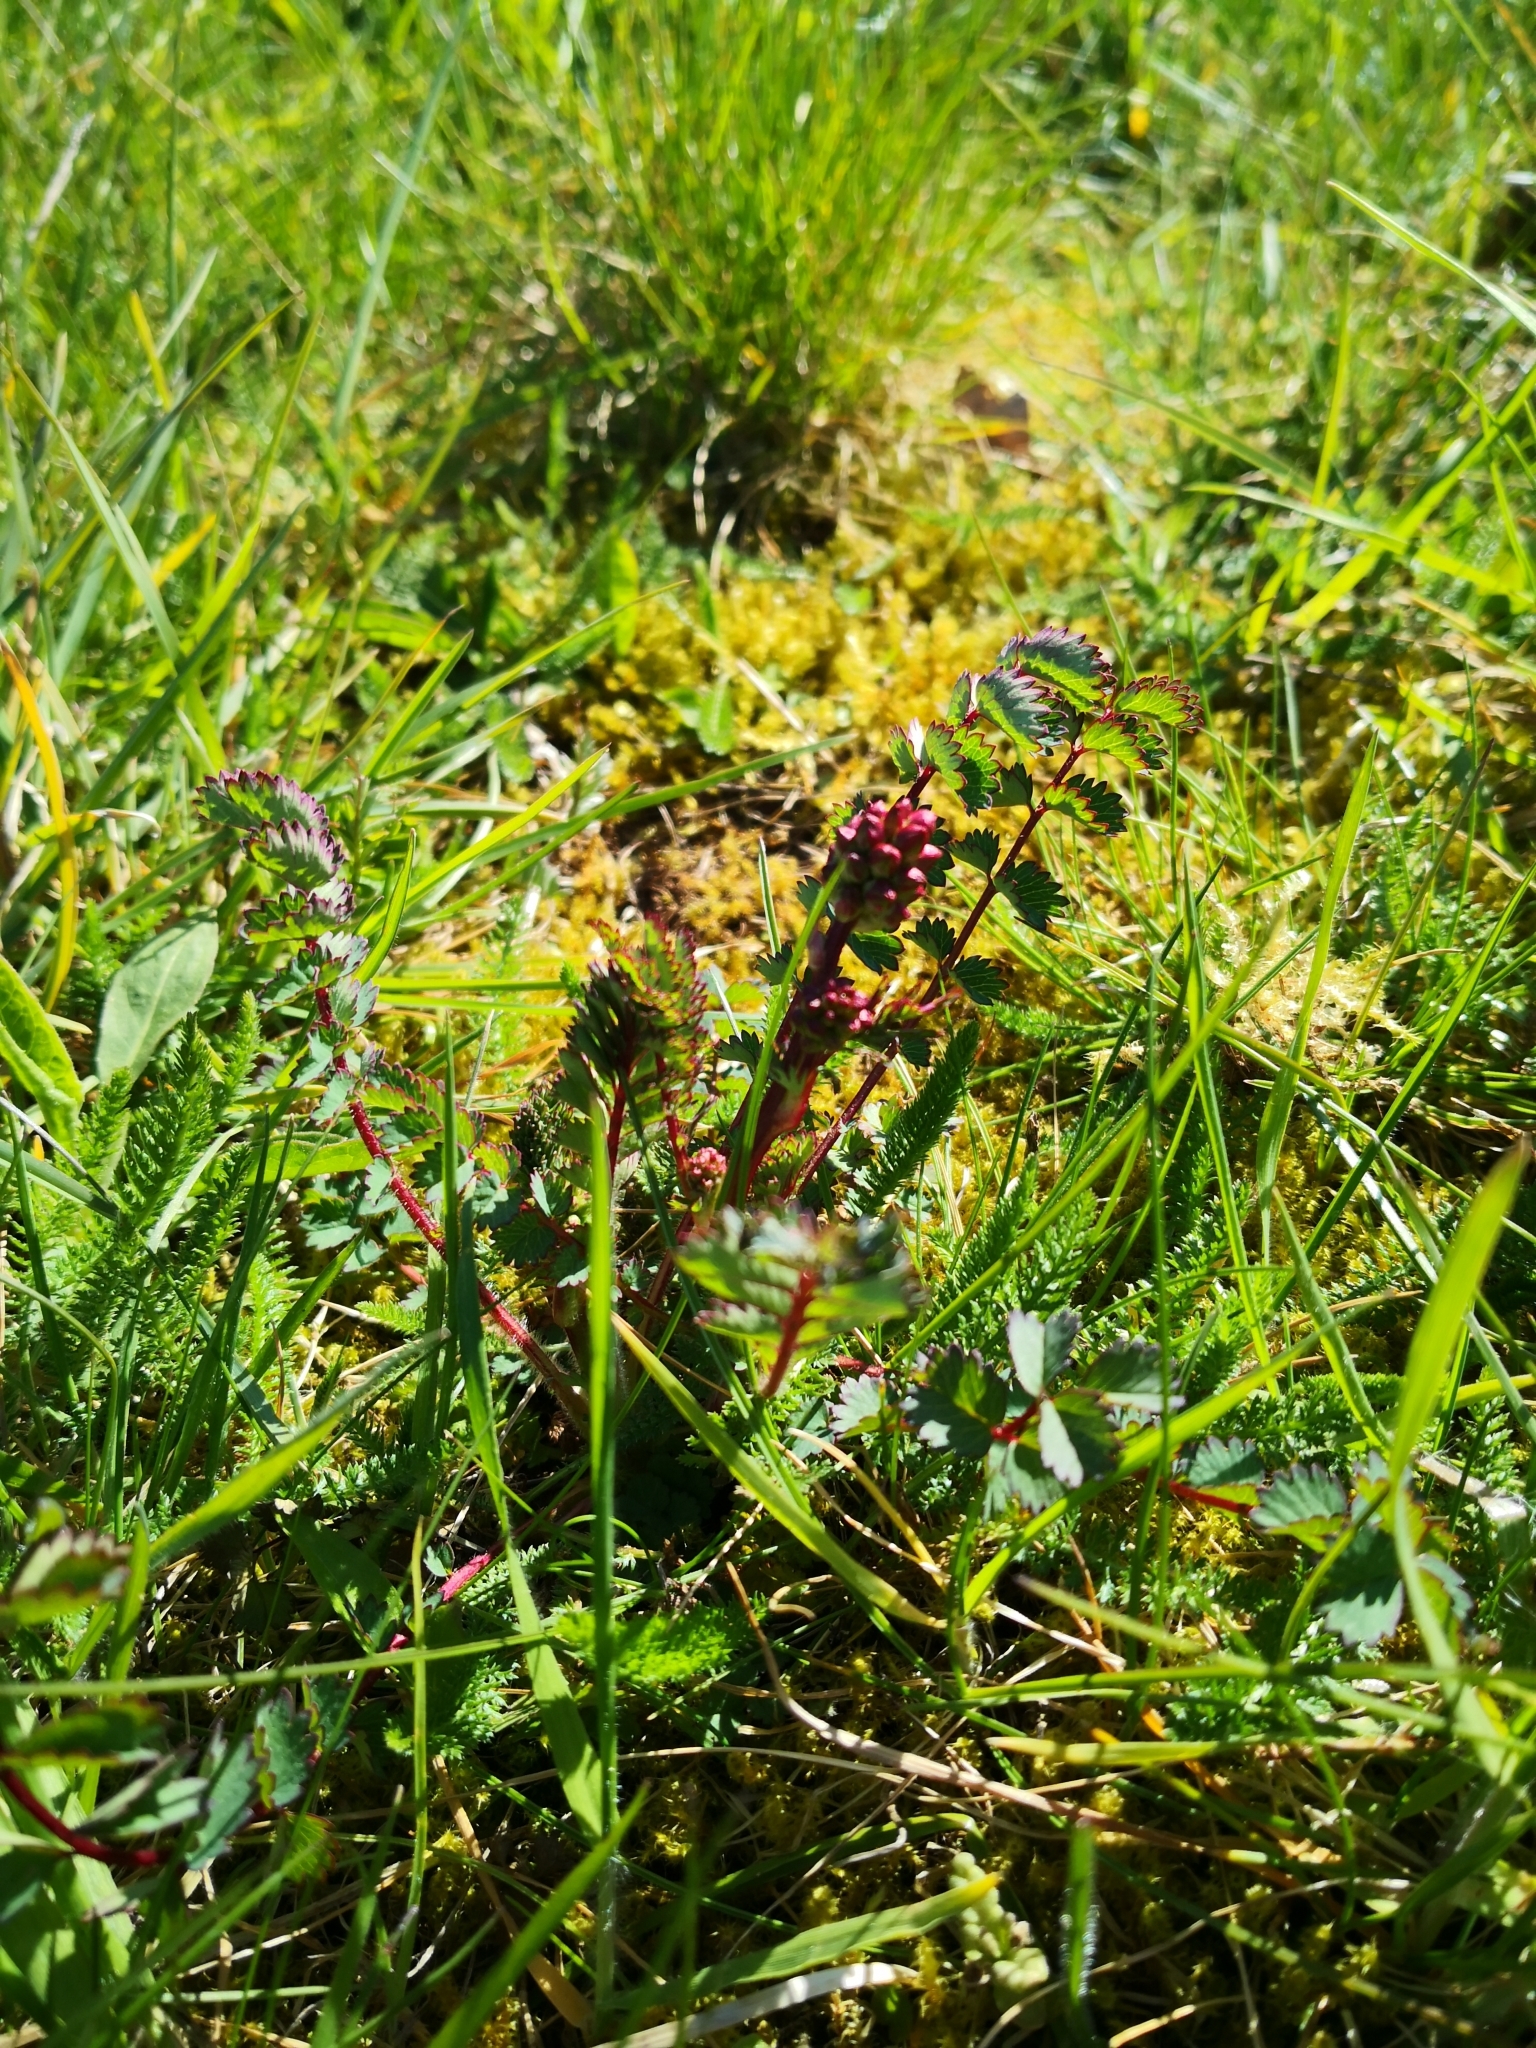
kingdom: Plantae
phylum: Tracheophyta
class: Magnoliopsida
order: Rosales
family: Rosaceae
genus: Poterium
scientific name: Poterium sanguisorba
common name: Salad burnet
